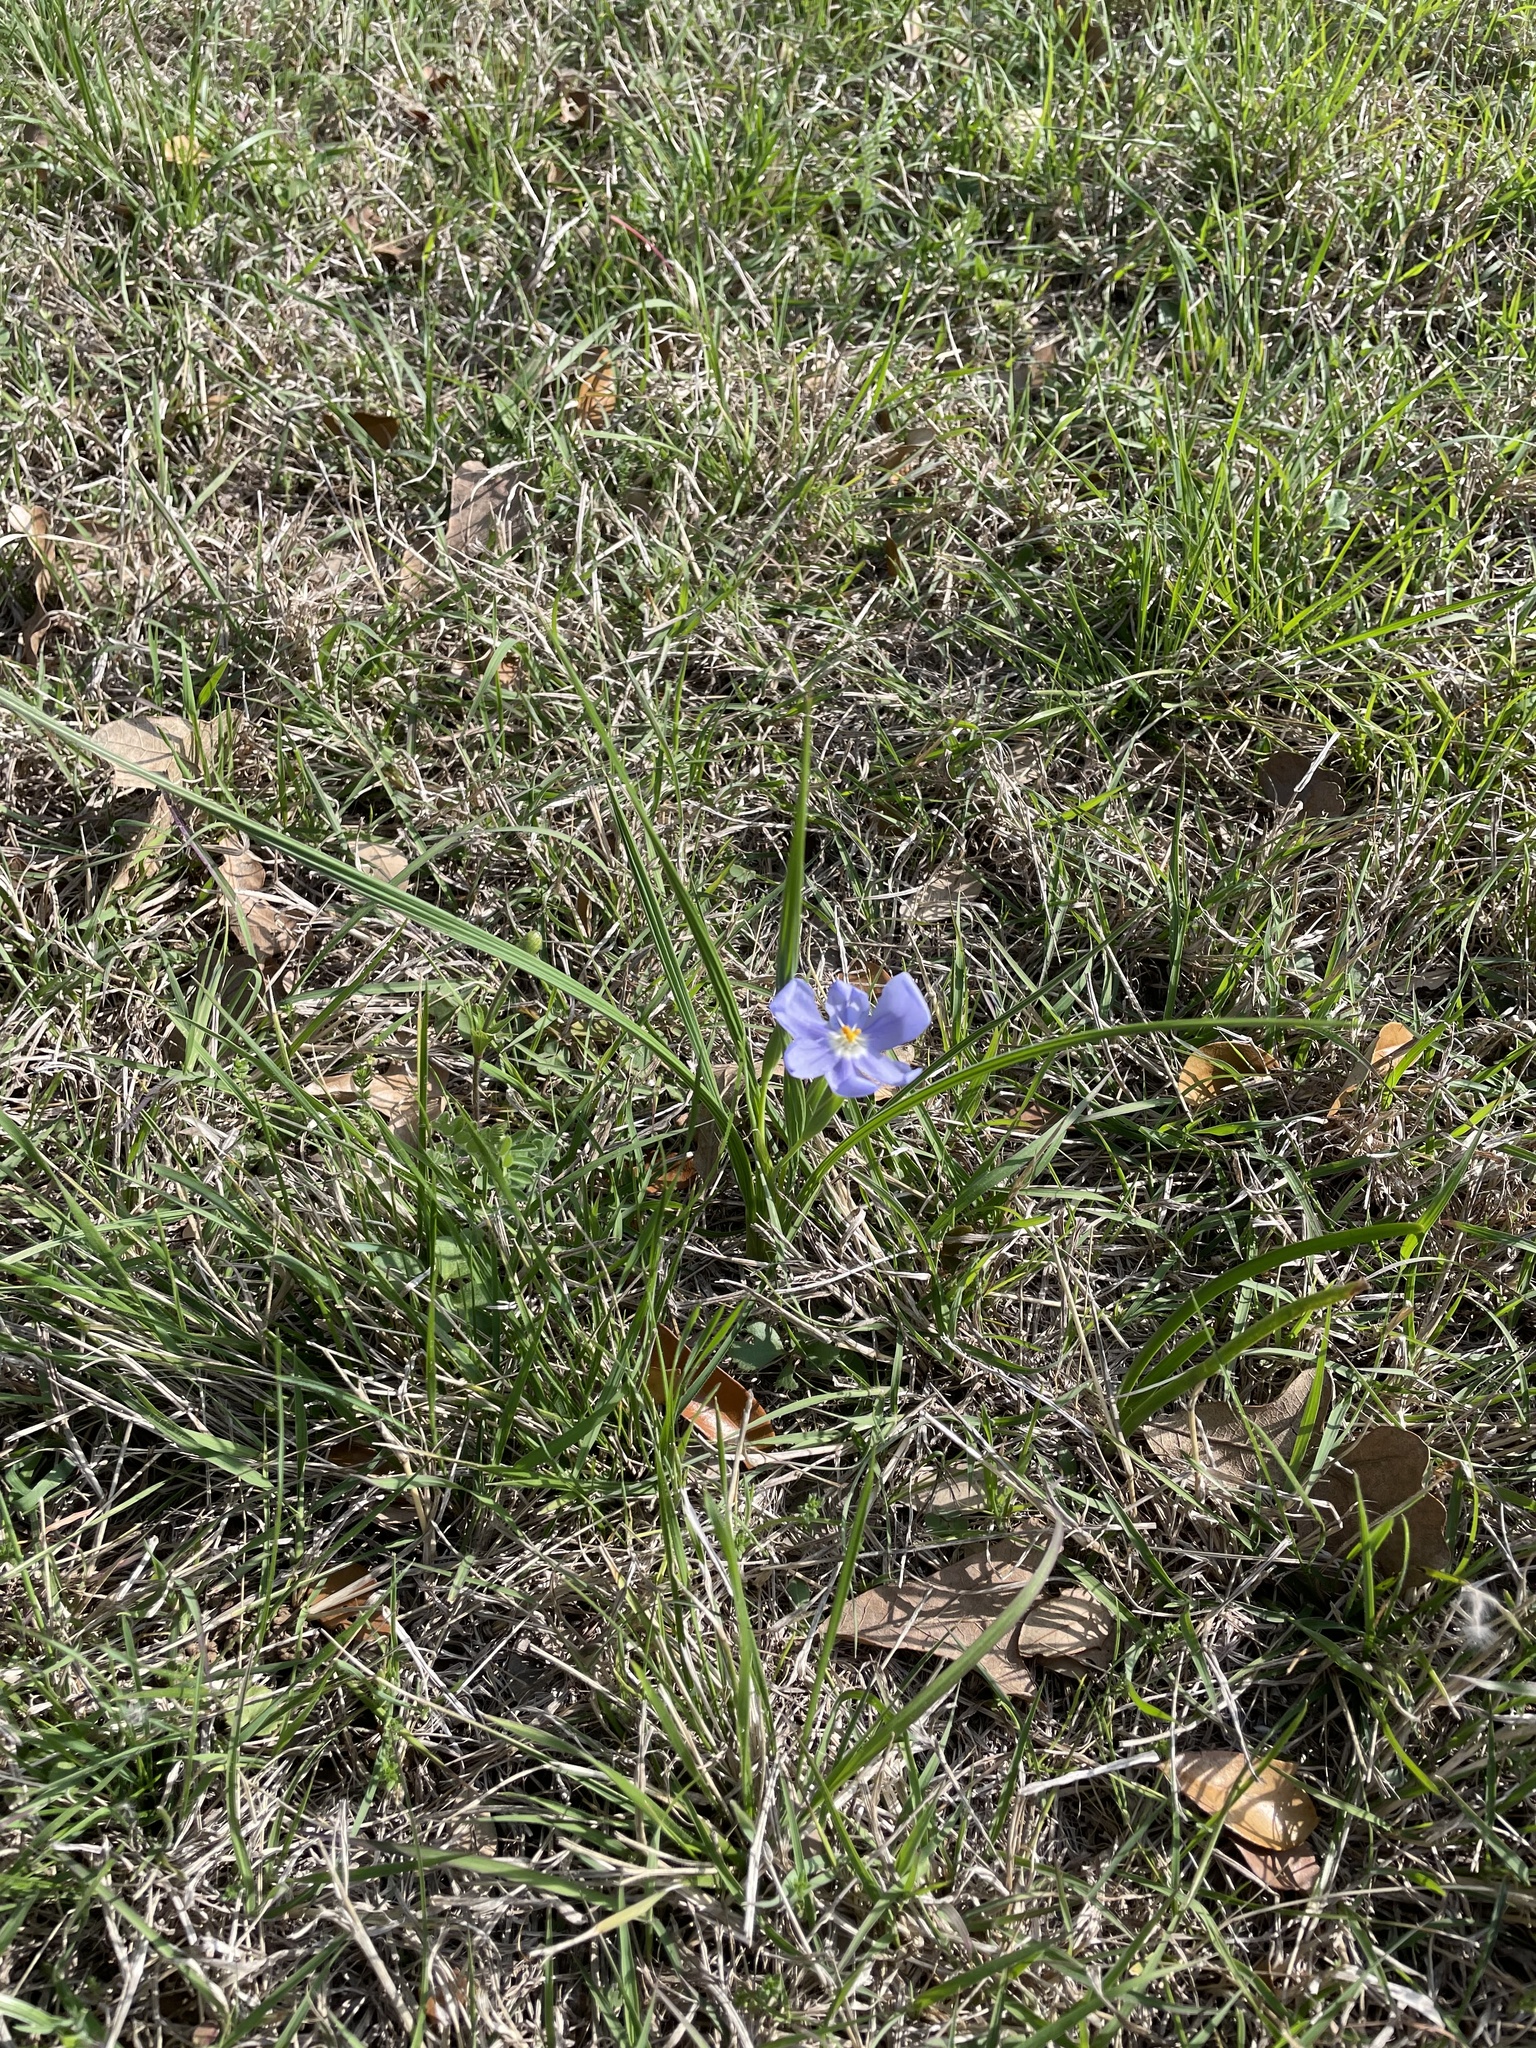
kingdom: Plantae
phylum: Tracheophyta
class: Liliopsida
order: Asparagales
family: Iridaceae
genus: Nemastylis
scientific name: Nemastylis geminiflora
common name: Prairie celestial
